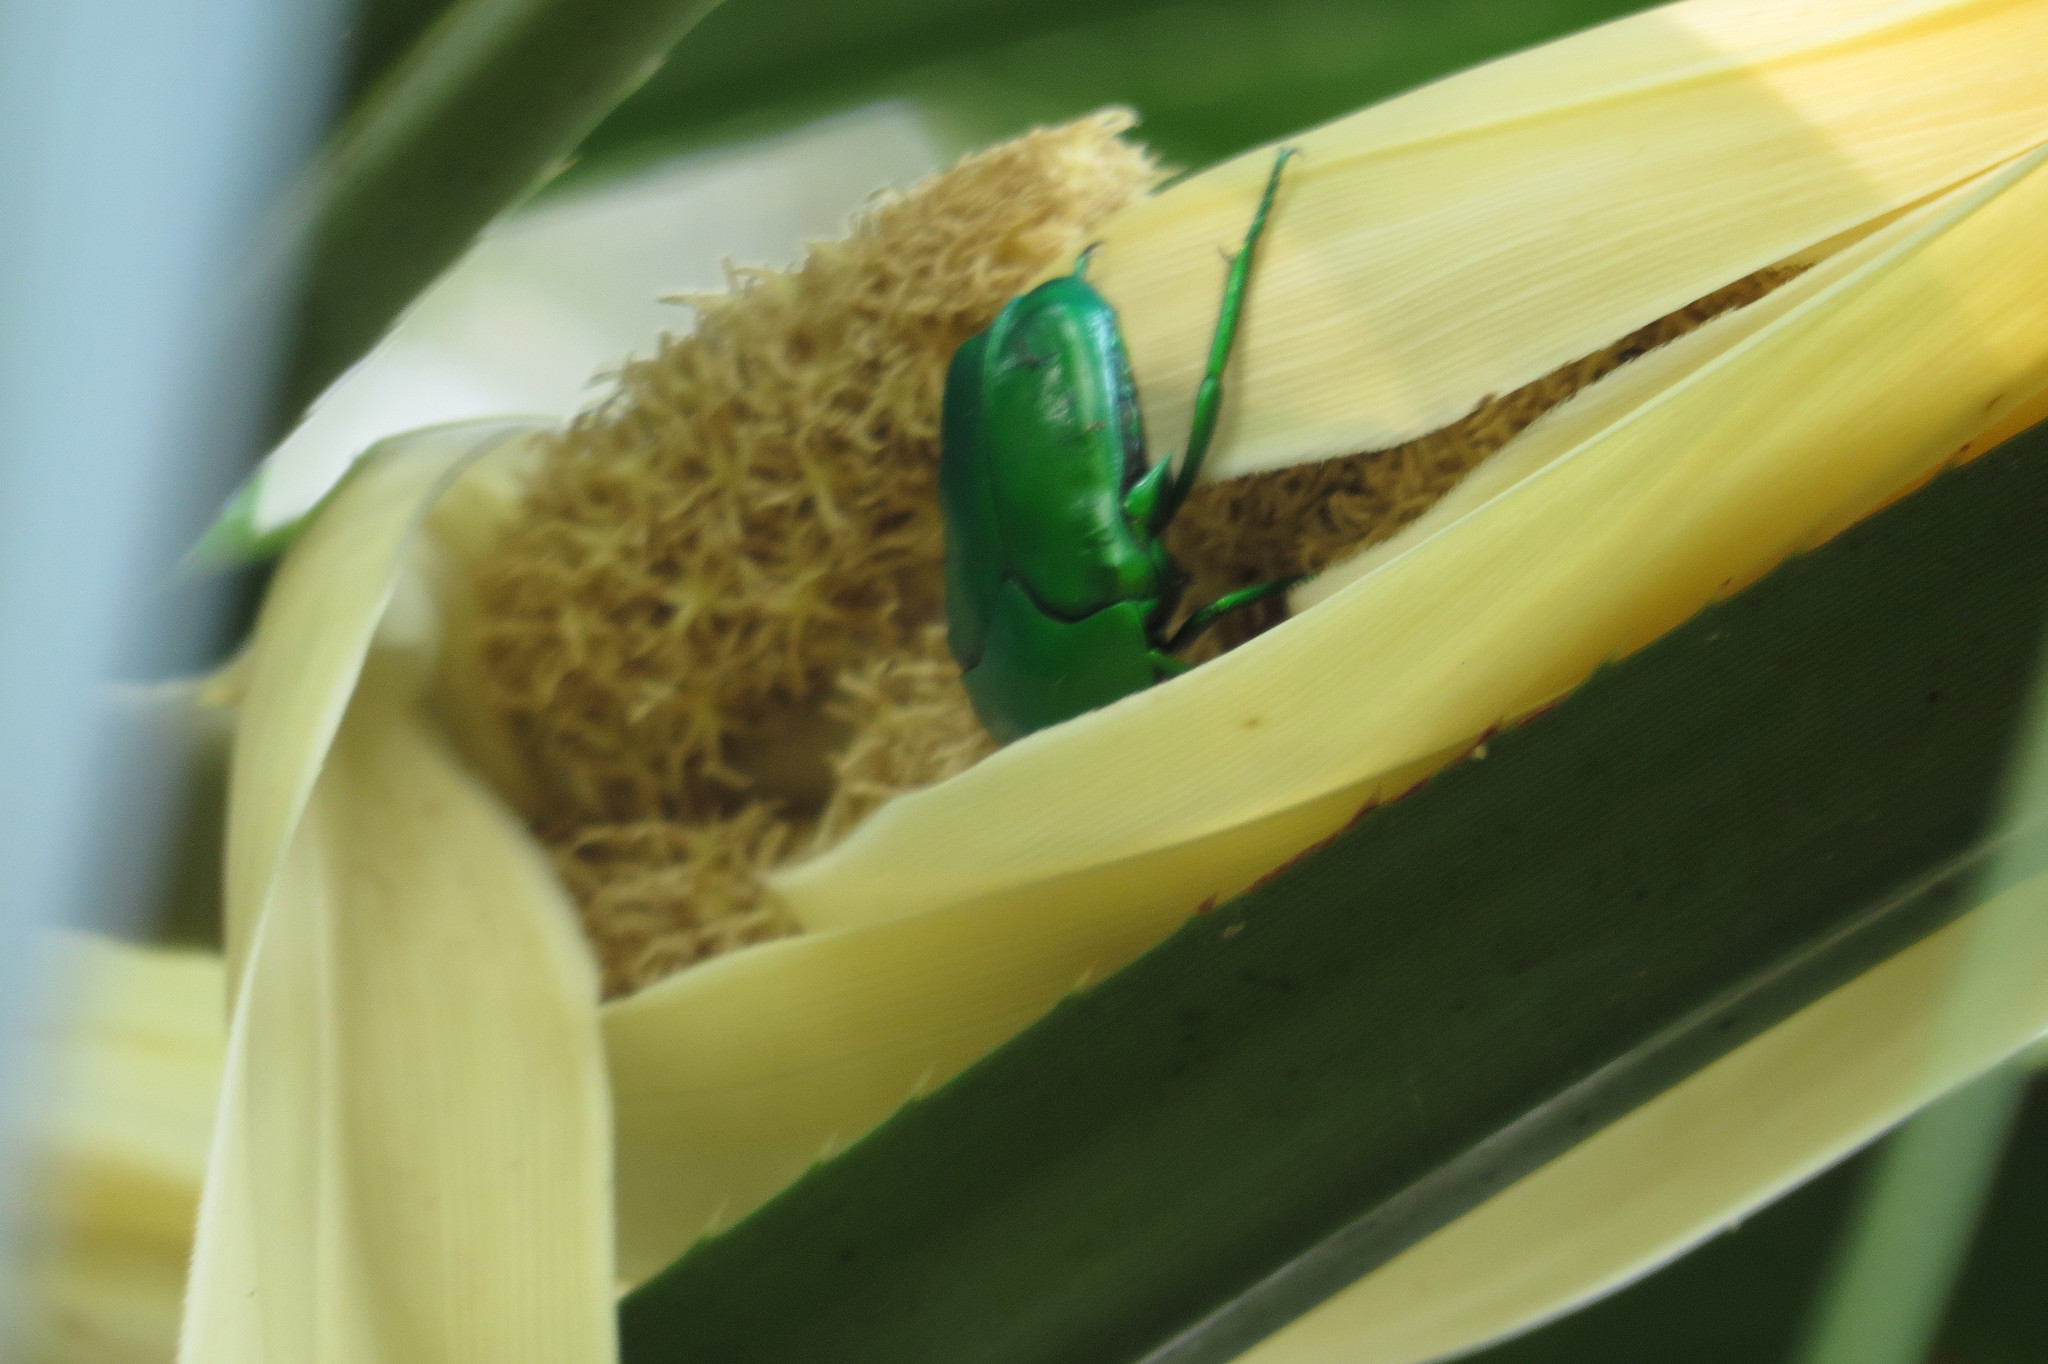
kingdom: Animalia
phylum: Arthropoda
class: Insecta
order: Coleoptera
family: Scarabaeidae
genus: Ischiopsopha
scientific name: Ischiopsopha wallacei
